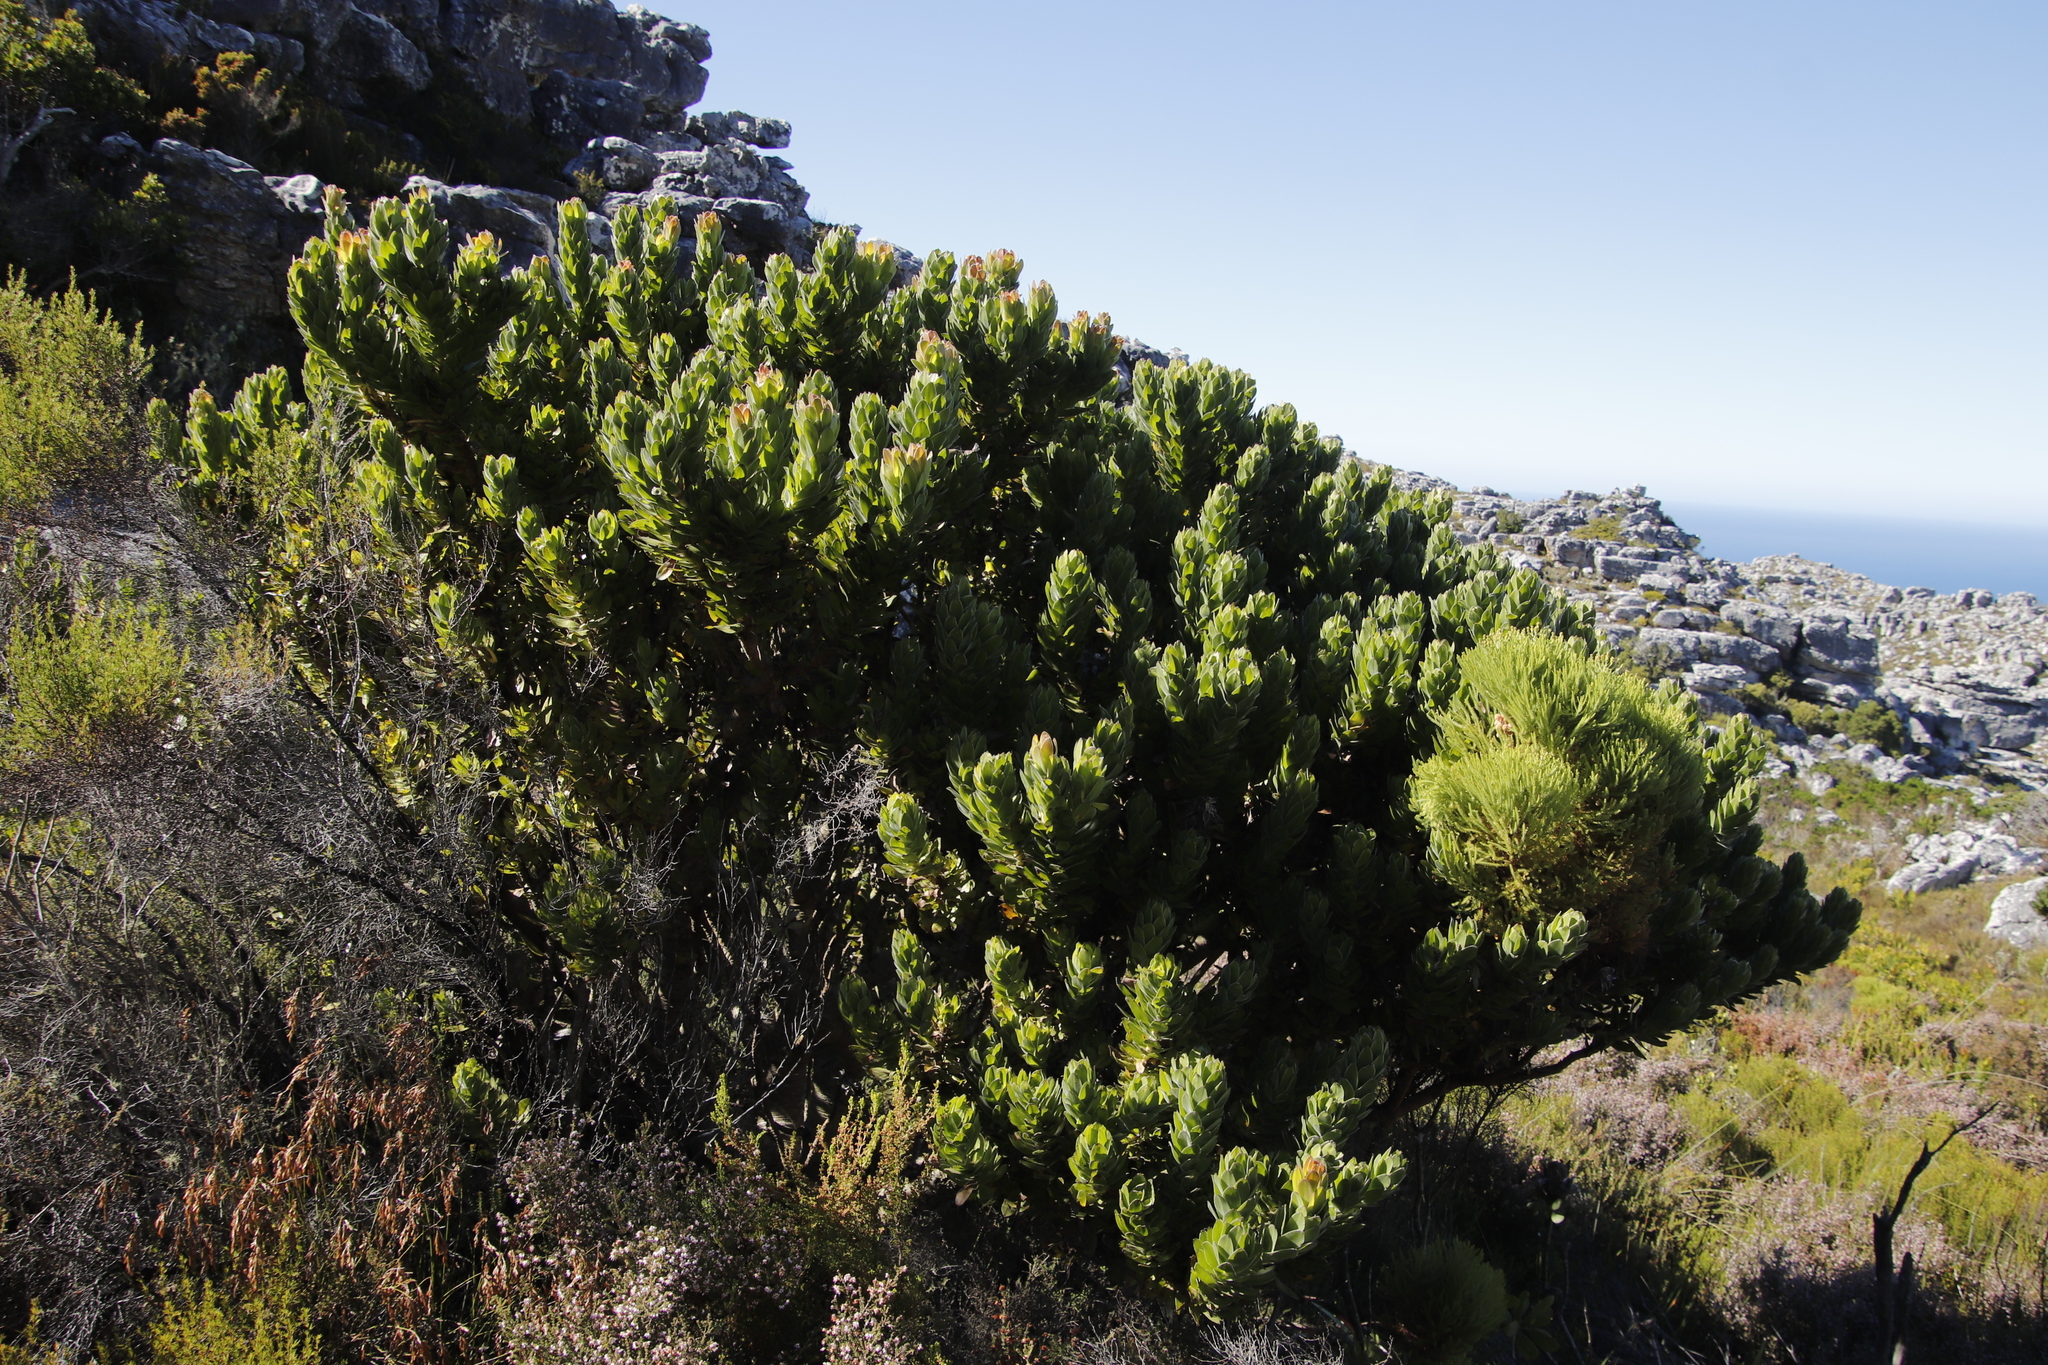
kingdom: Plantae
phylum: Tracheophyta
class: Magnoliopsida
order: Proteales
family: Proteaceae
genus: Mimetes
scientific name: Mimetes fimbriifolius
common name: Fringed bottlebrush
